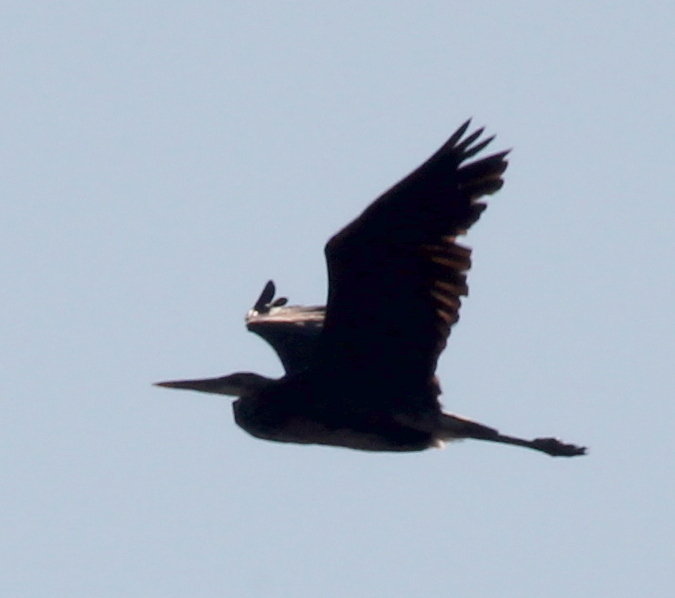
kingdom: Animalia
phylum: Chordata
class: Aves
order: Pelecaniformes
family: Ardeidae
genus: Ardea
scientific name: Ardea herodias
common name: Great blue heron
